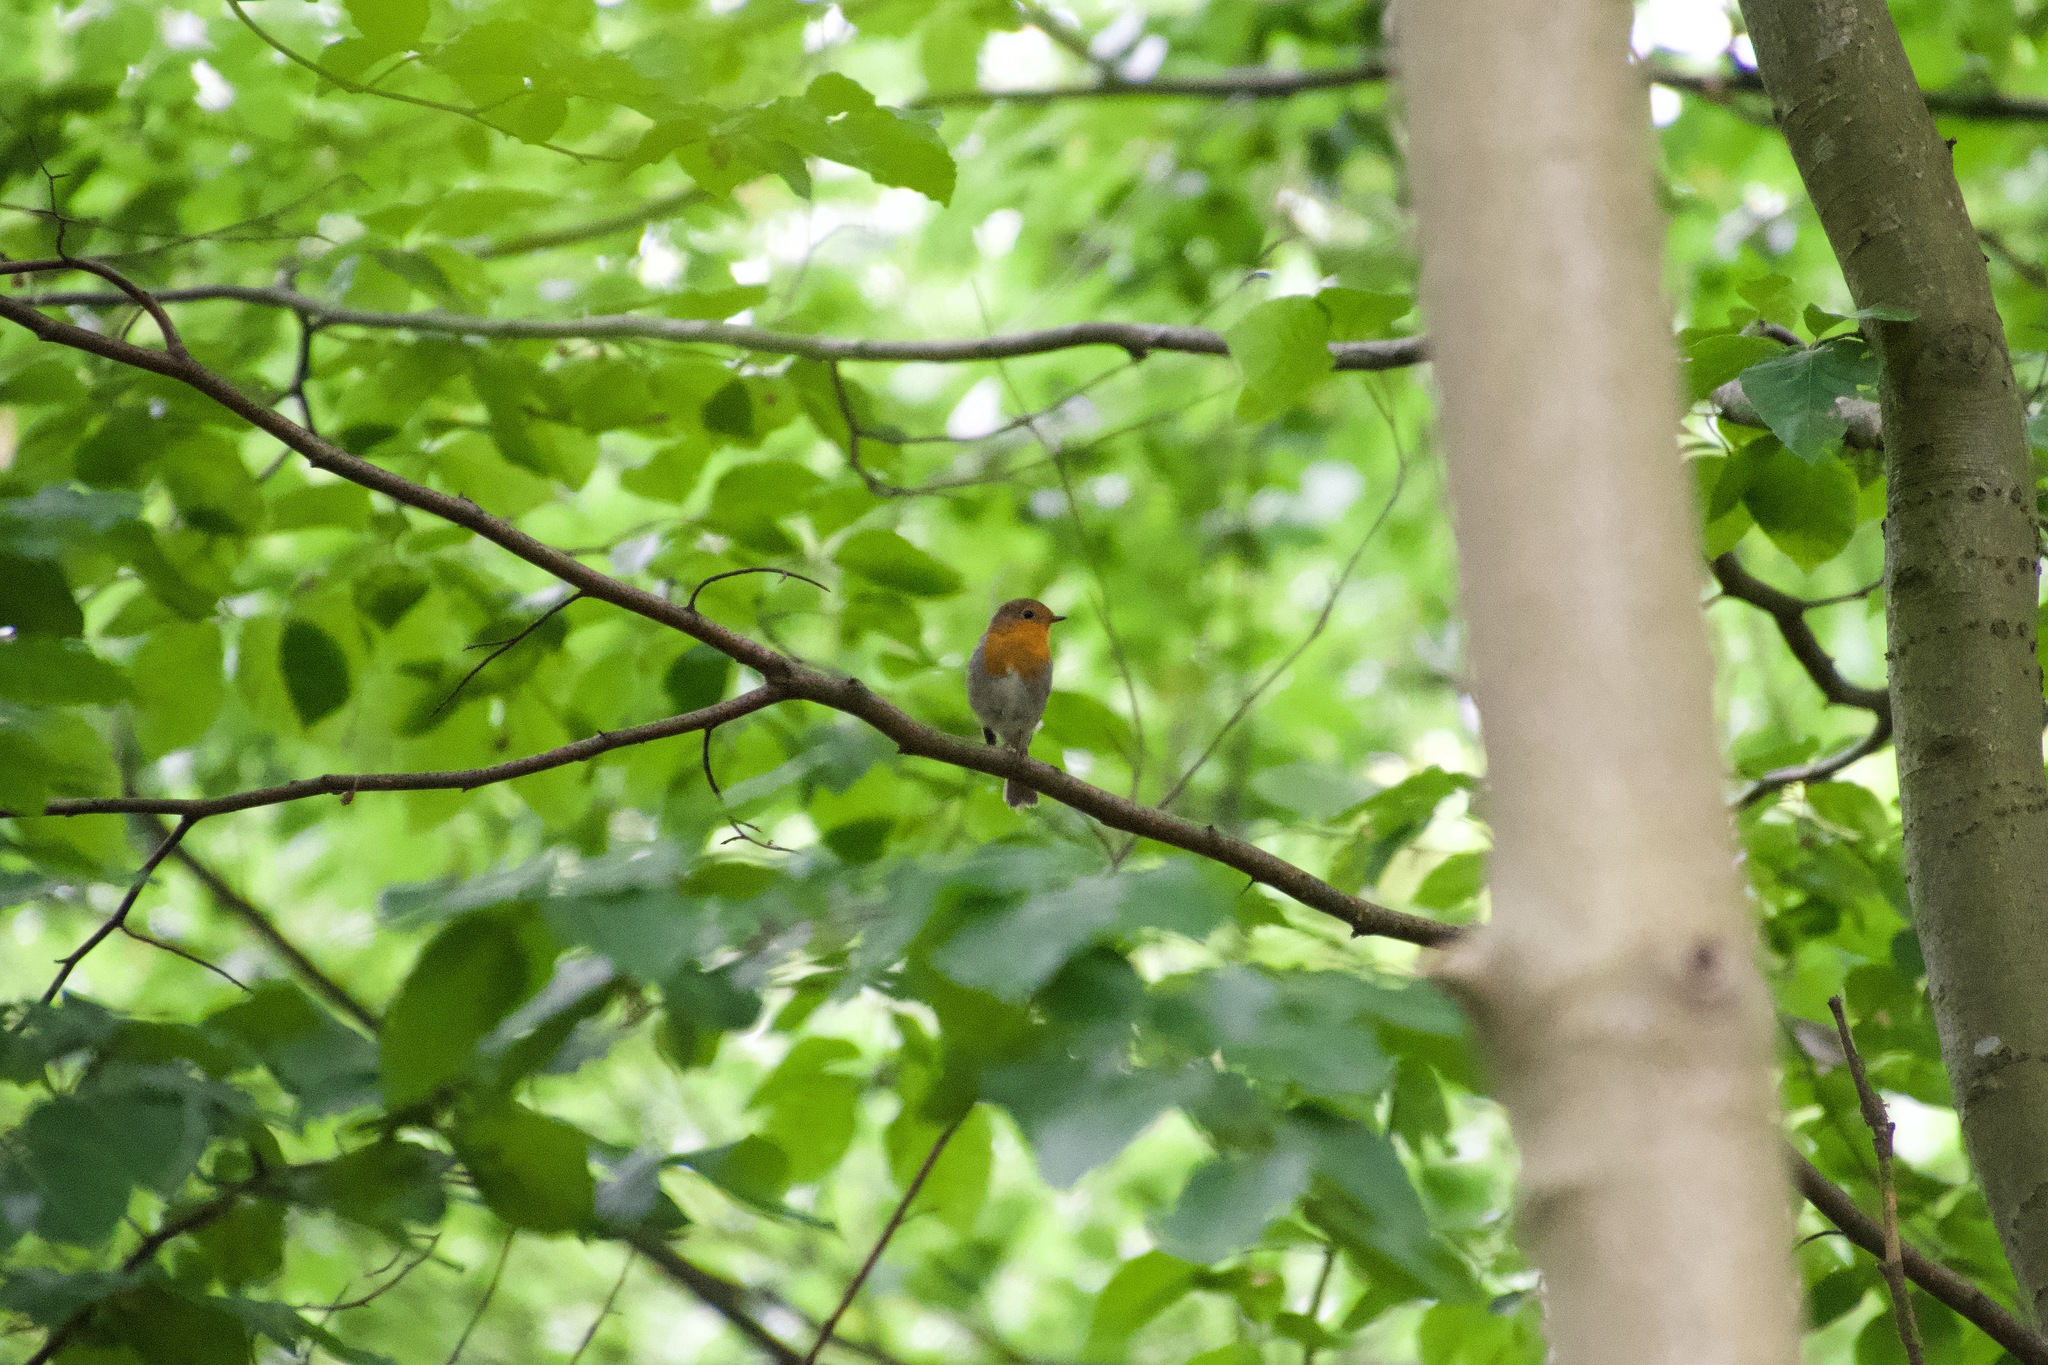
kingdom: Animalia
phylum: Chordata
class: Aves
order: Passeriformes
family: Muscicapidae
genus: Erithacus
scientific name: Erithacus rubecula
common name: European robin
